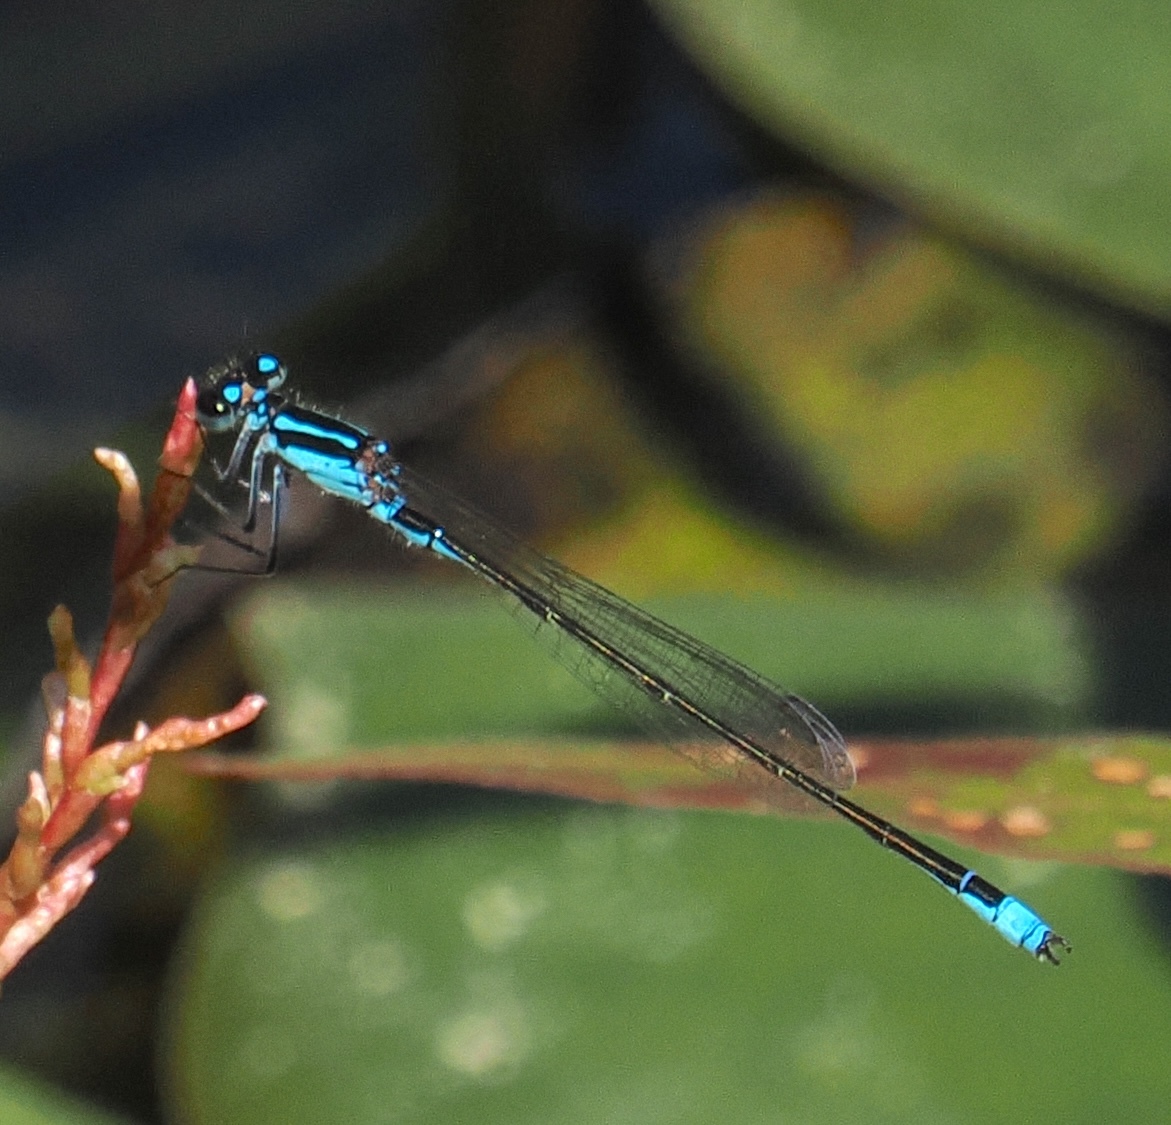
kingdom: Animalia
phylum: Arthropoda
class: Insecta
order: Odonata
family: Coenagrionidae
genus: Homeoura
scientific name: Homeoura chelifera
